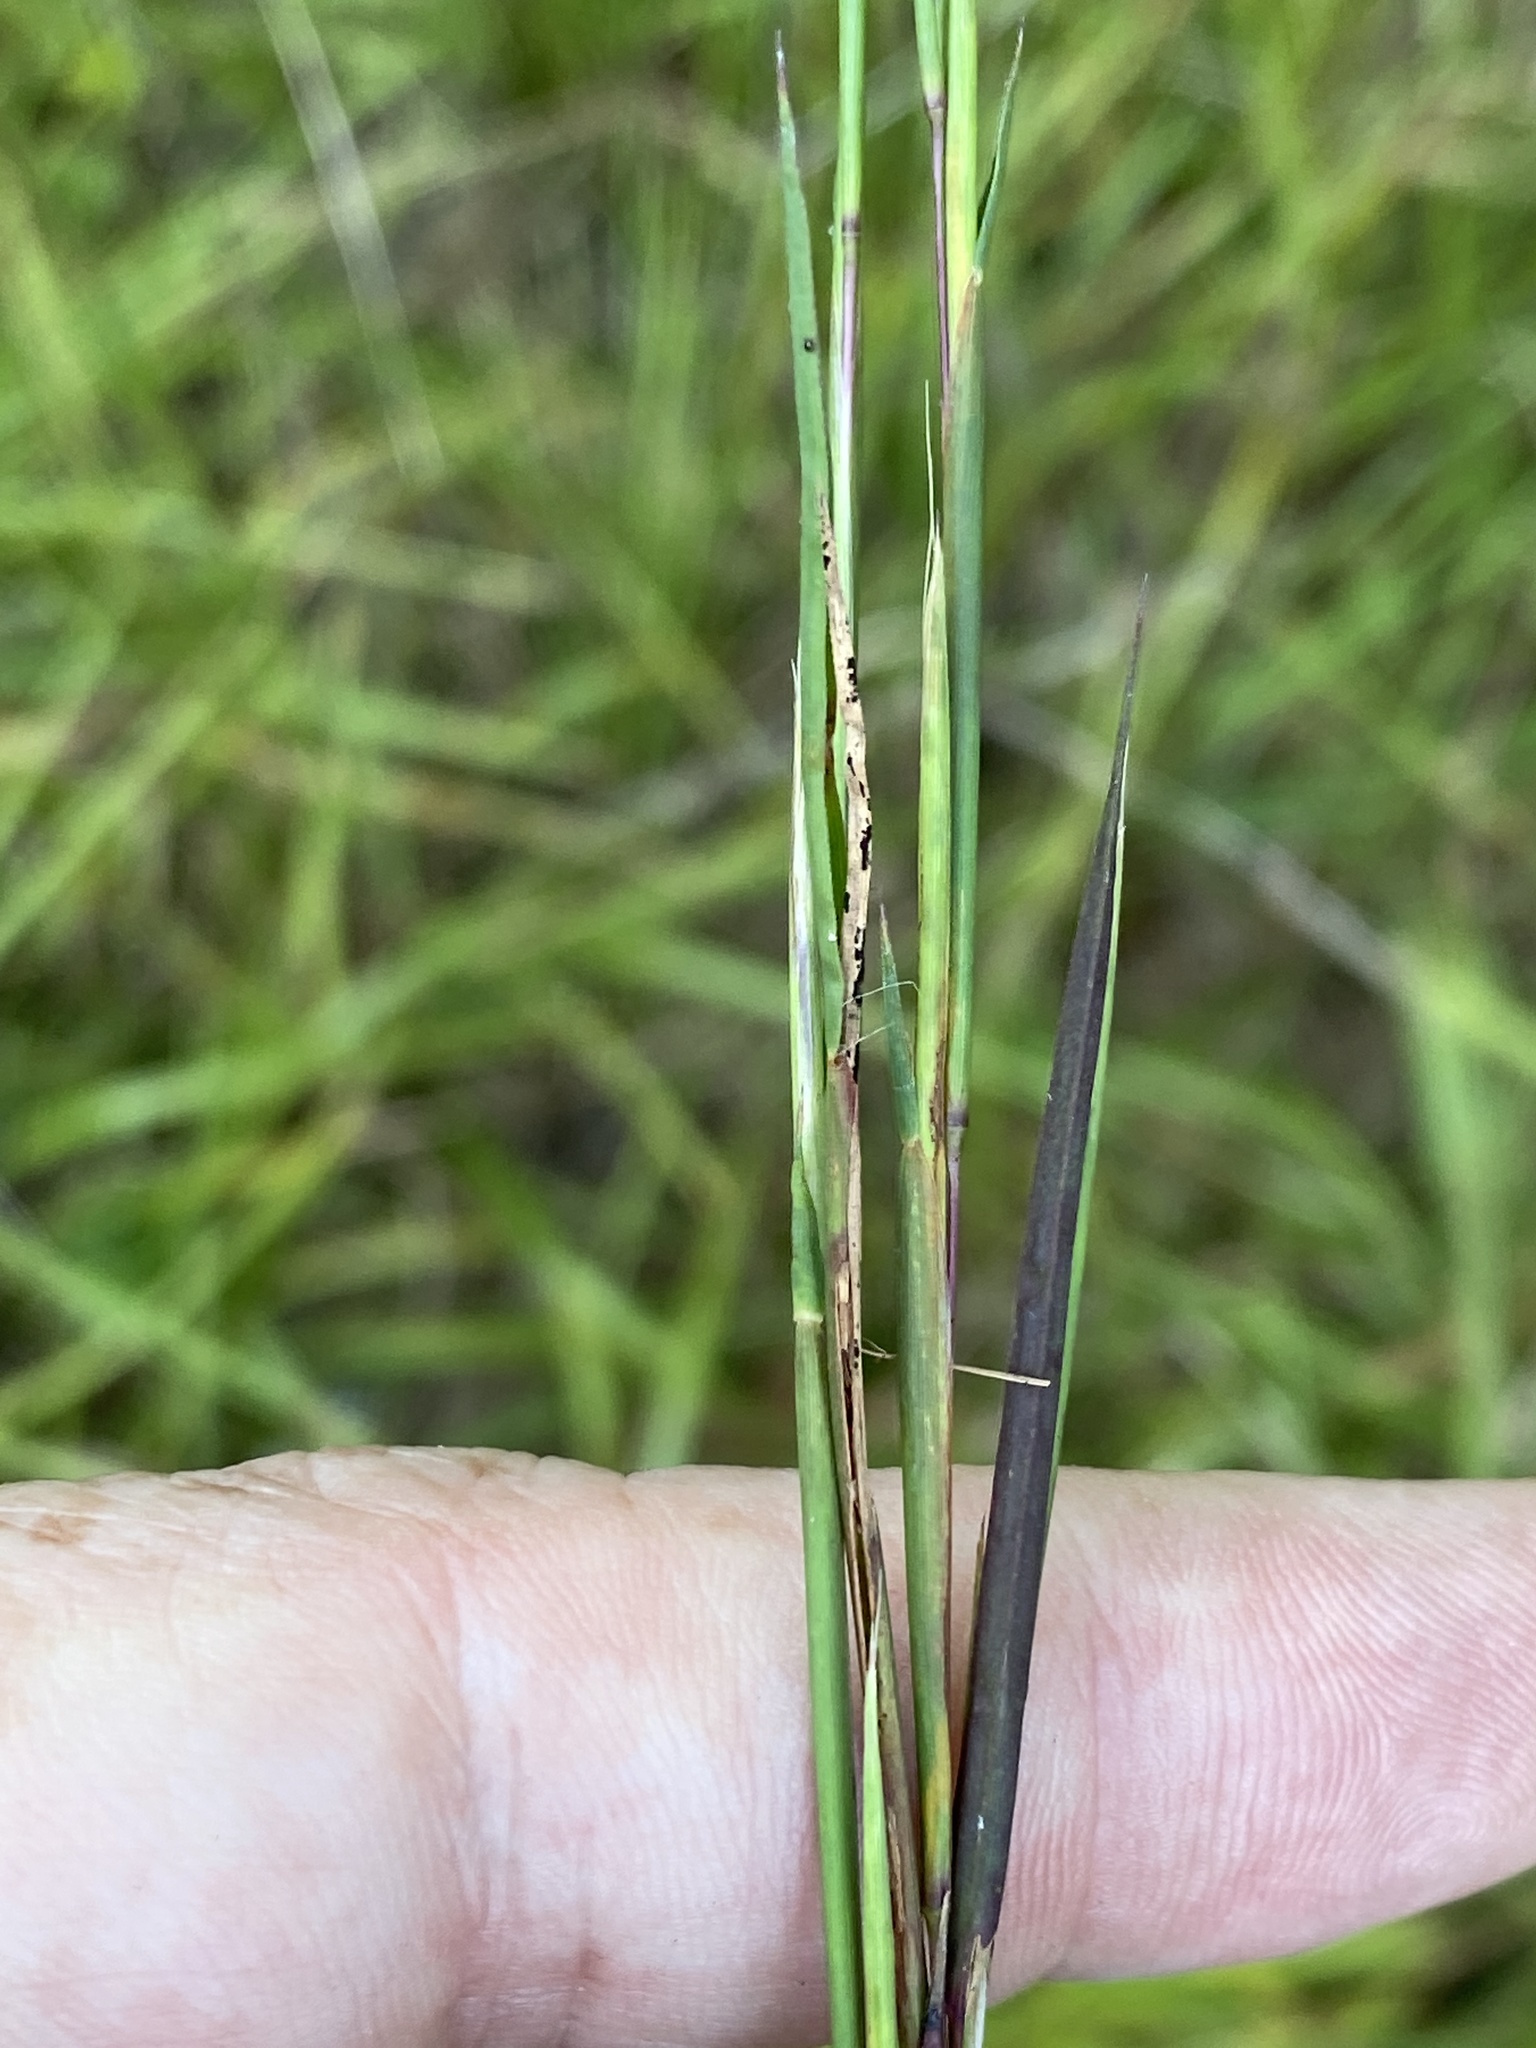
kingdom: Plantae
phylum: Tracheophyta
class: Liliopsida
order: Poales
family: Poaceae
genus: Schizachyrium
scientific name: Schizachyrium scoparium
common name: Little bluestem
